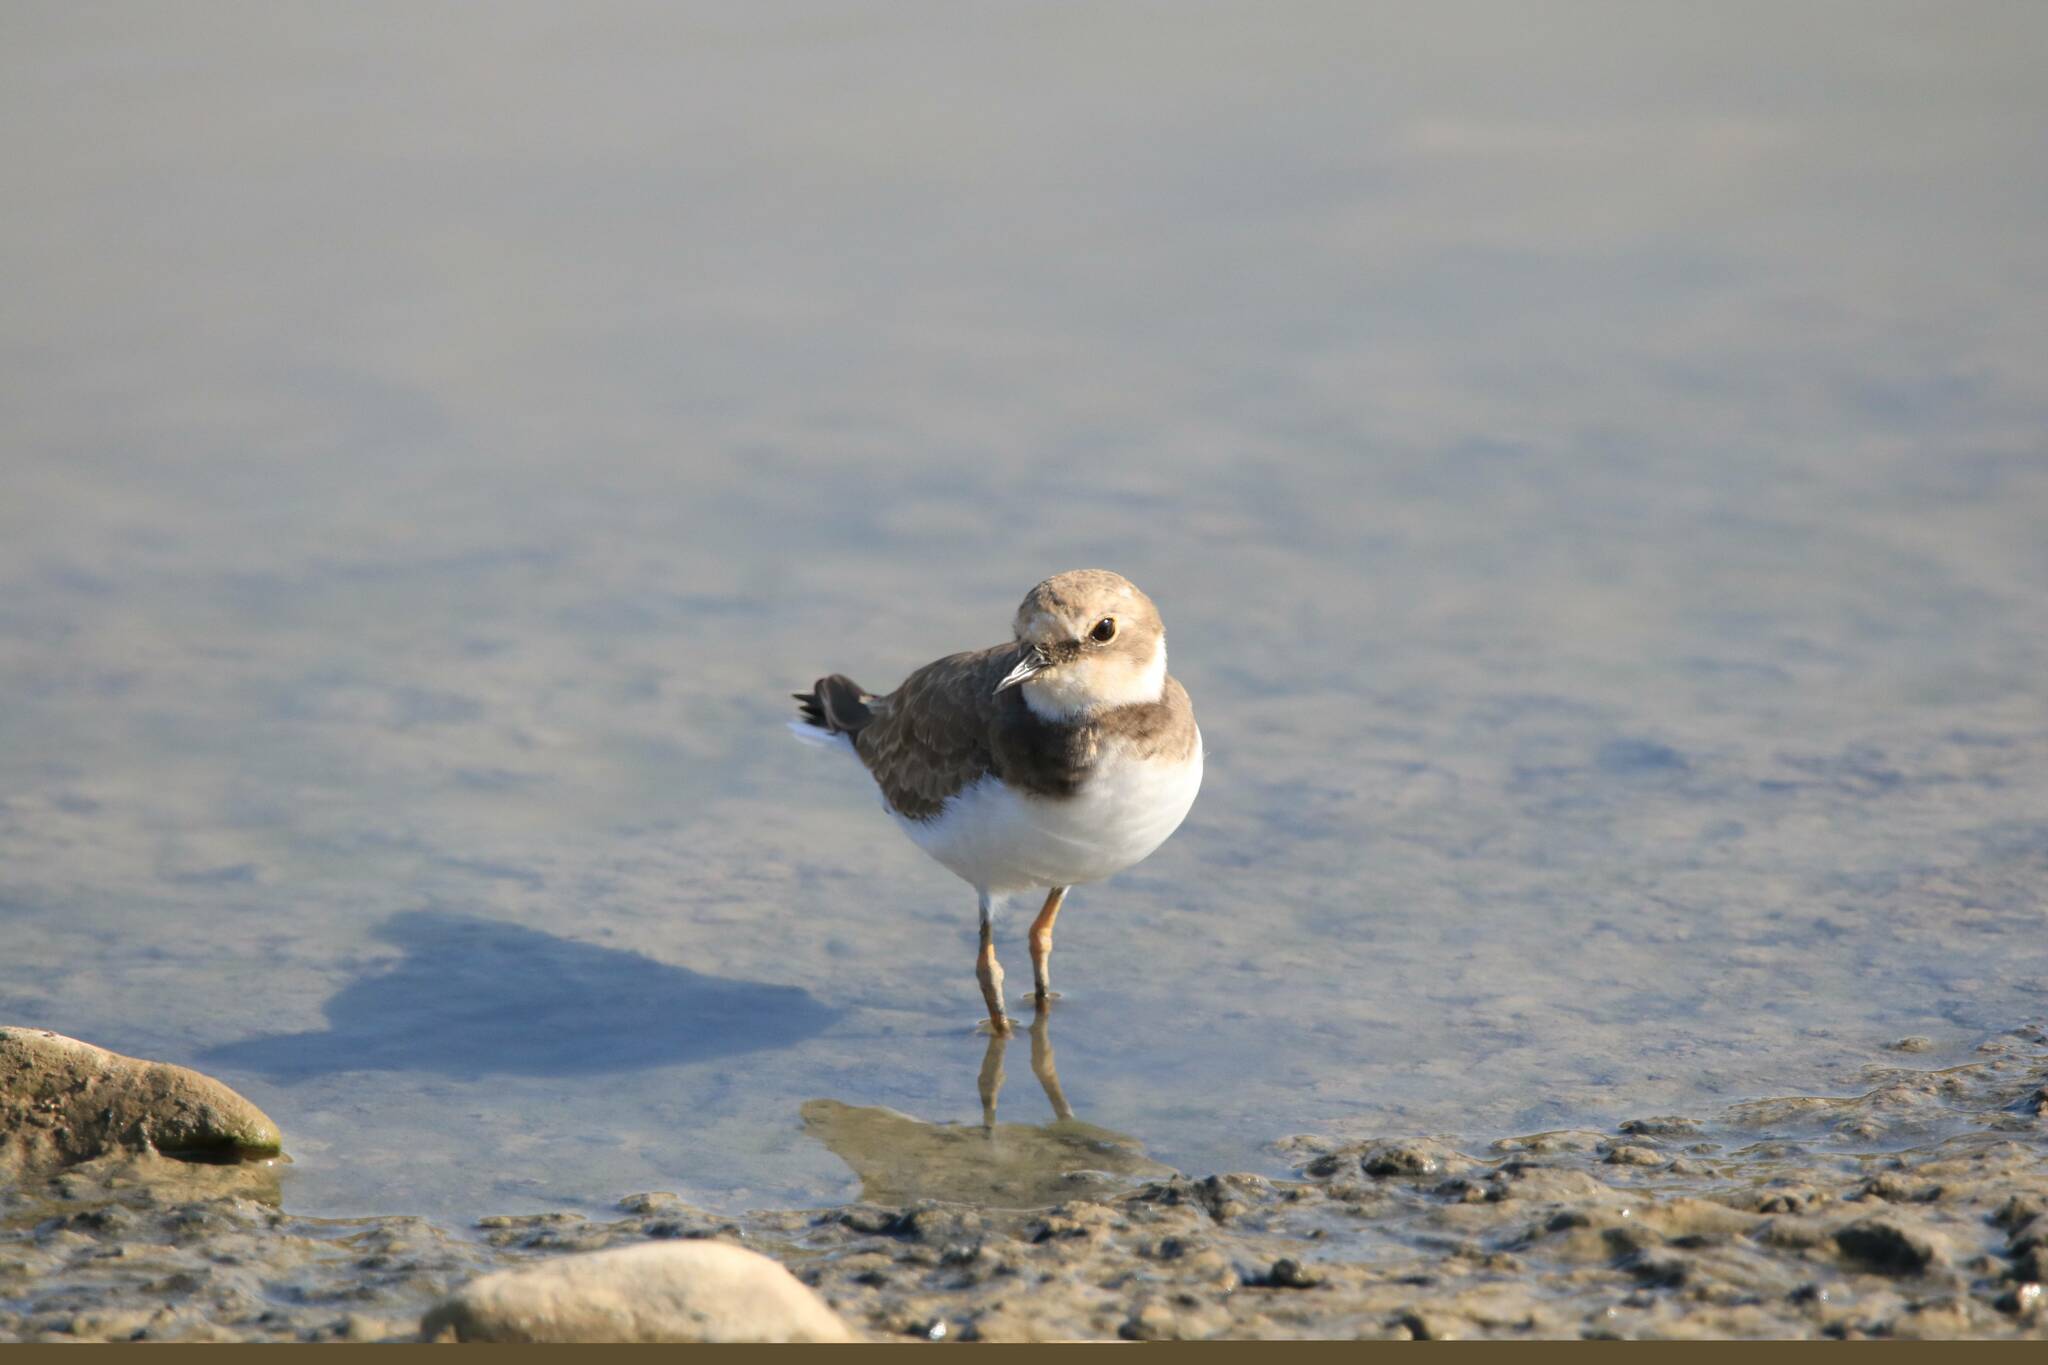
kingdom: Animalia
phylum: Chordata
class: Aves
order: Charadriiformes
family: Charadriidae
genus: Charadrius
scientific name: Charadrius dubius
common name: Little ringed plover
